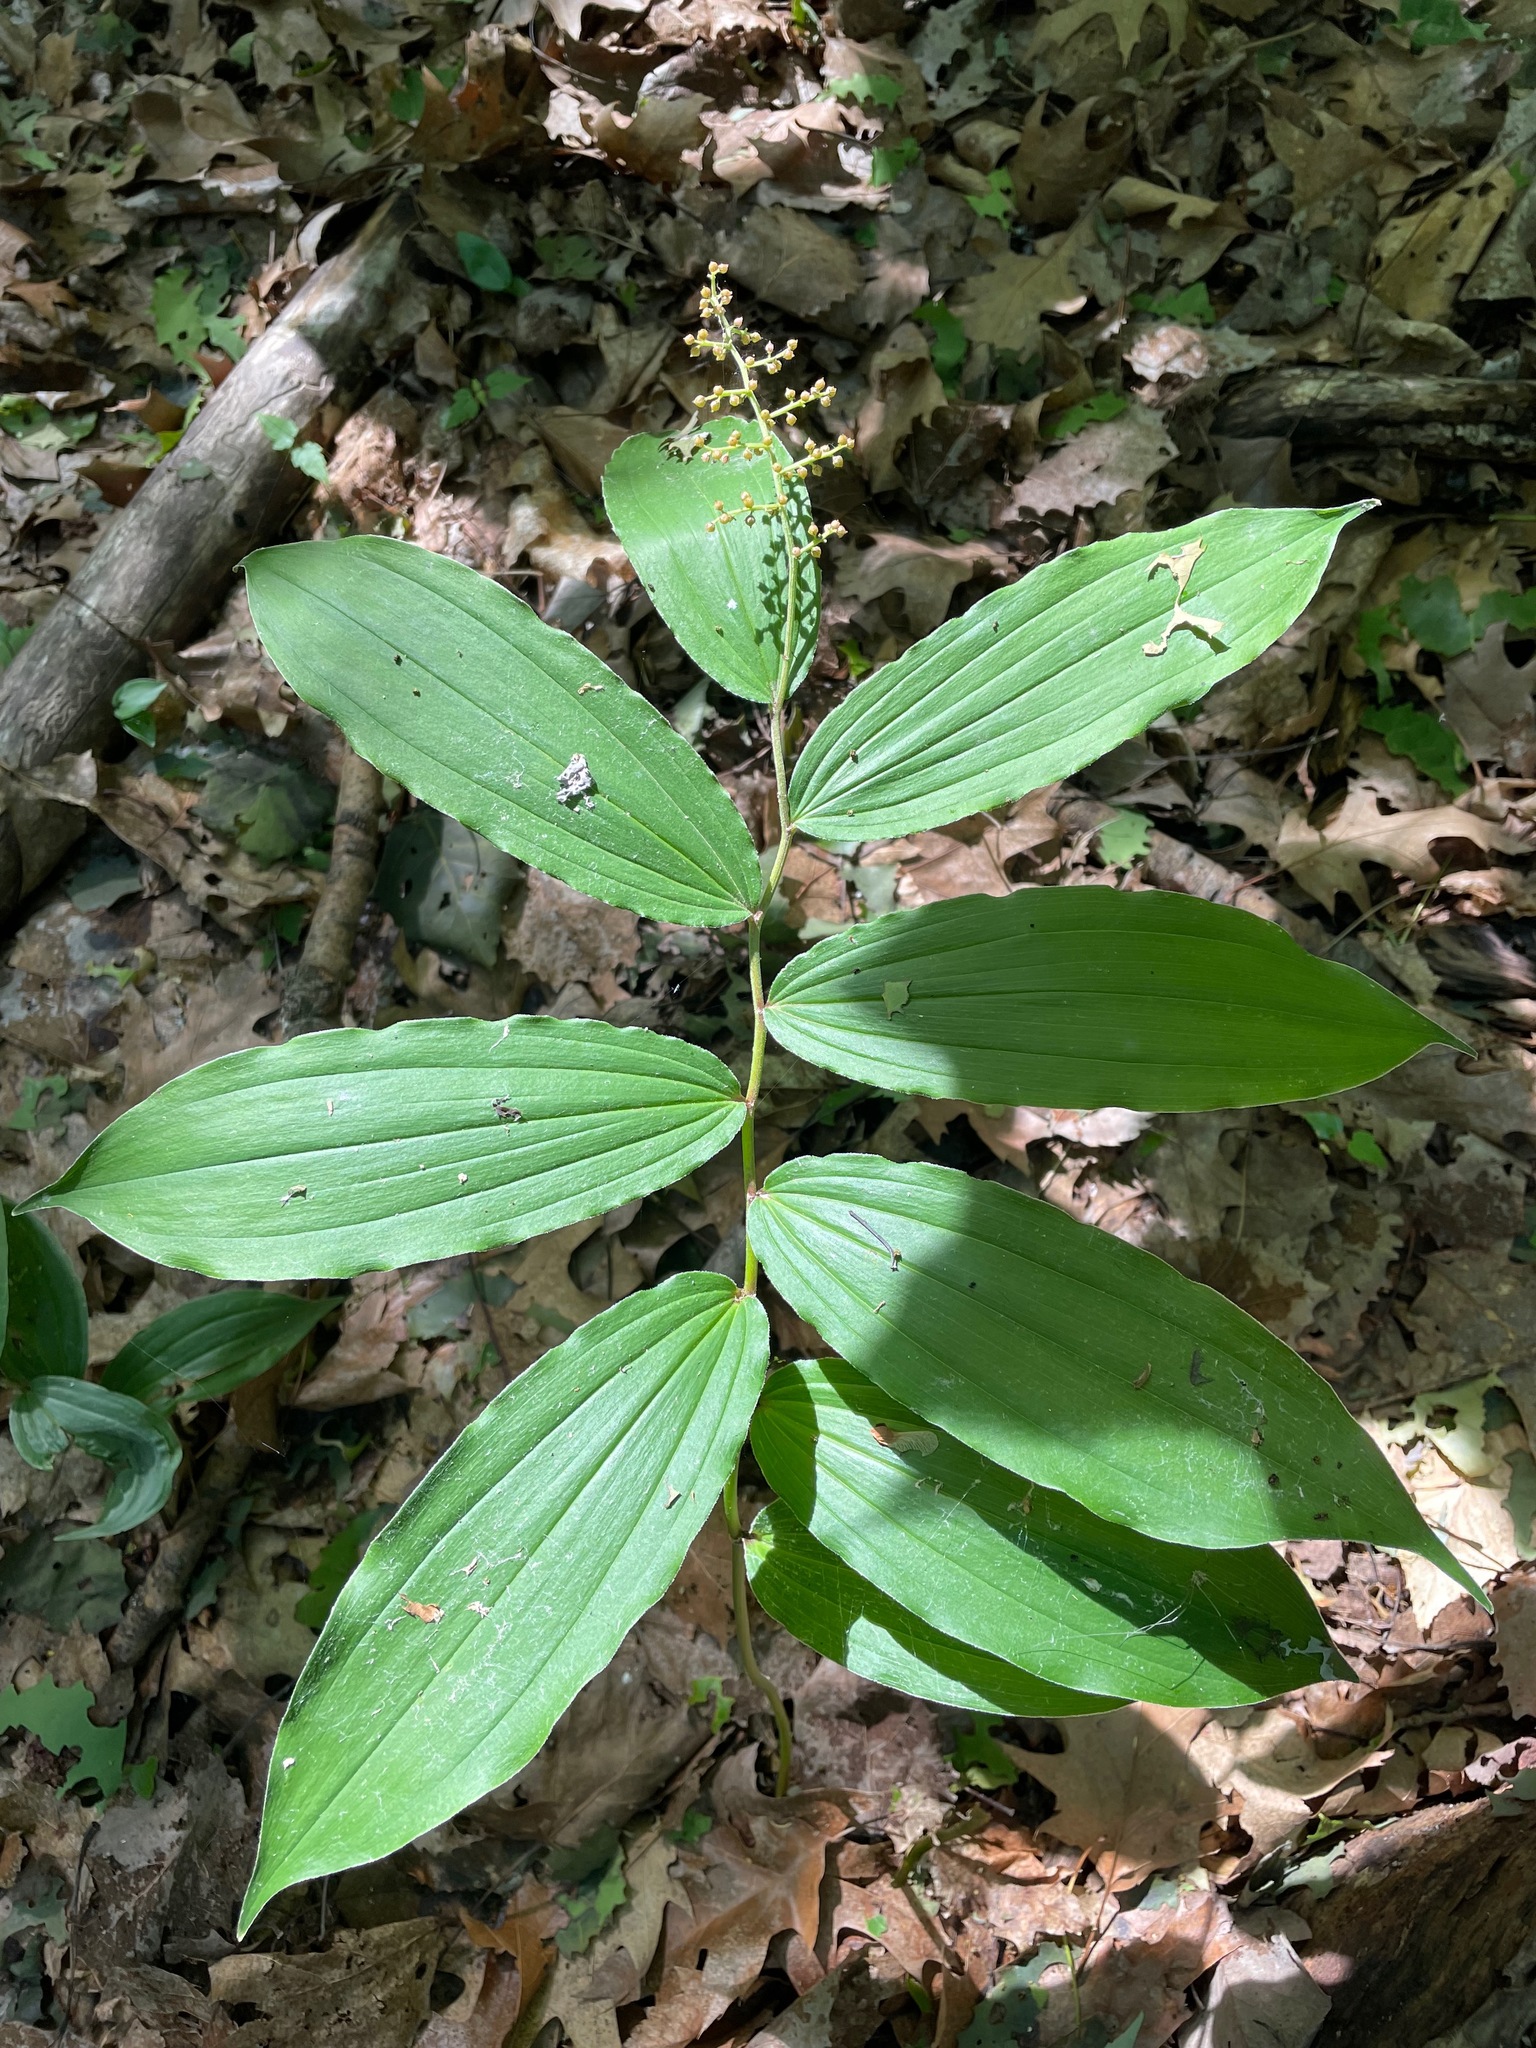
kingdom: Plantae
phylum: Tracheophyta
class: Liliopsida
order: Asparagales
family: Asparagaceae
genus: Maianthemum
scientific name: Maianthemum racemosum
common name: False spikenard
